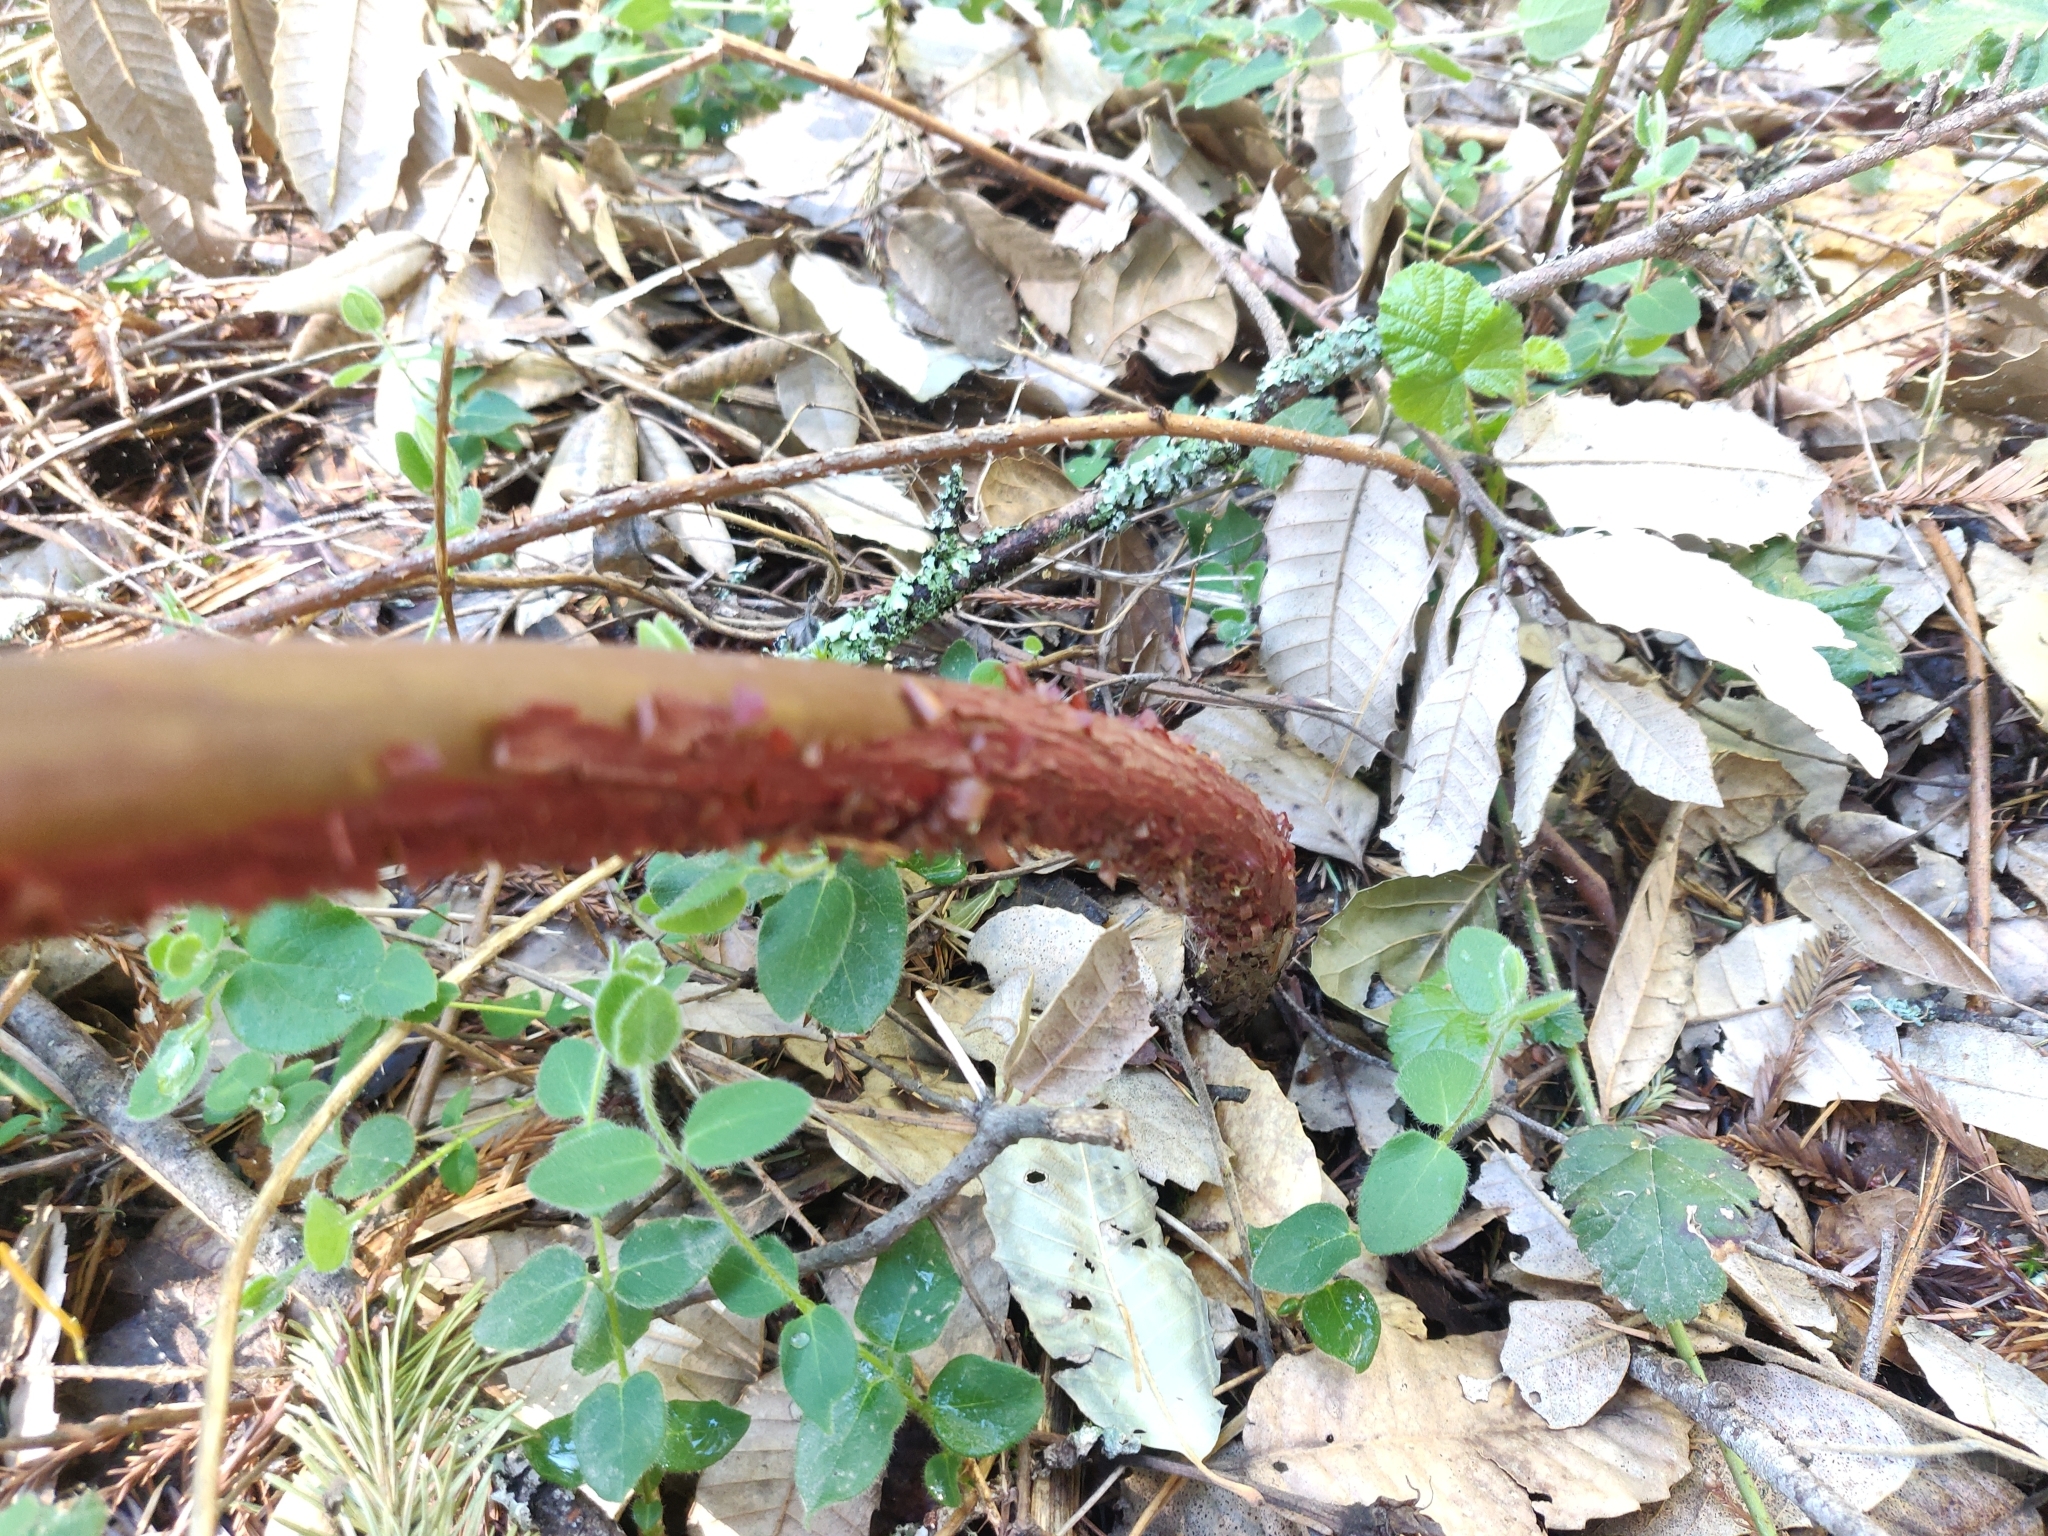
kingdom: Plantae
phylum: Tracheophyta
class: Magnoliopsida
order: Ericales
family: Ericaceae
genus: Arctostaphylos
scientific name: Arctostaphylos regismontana
